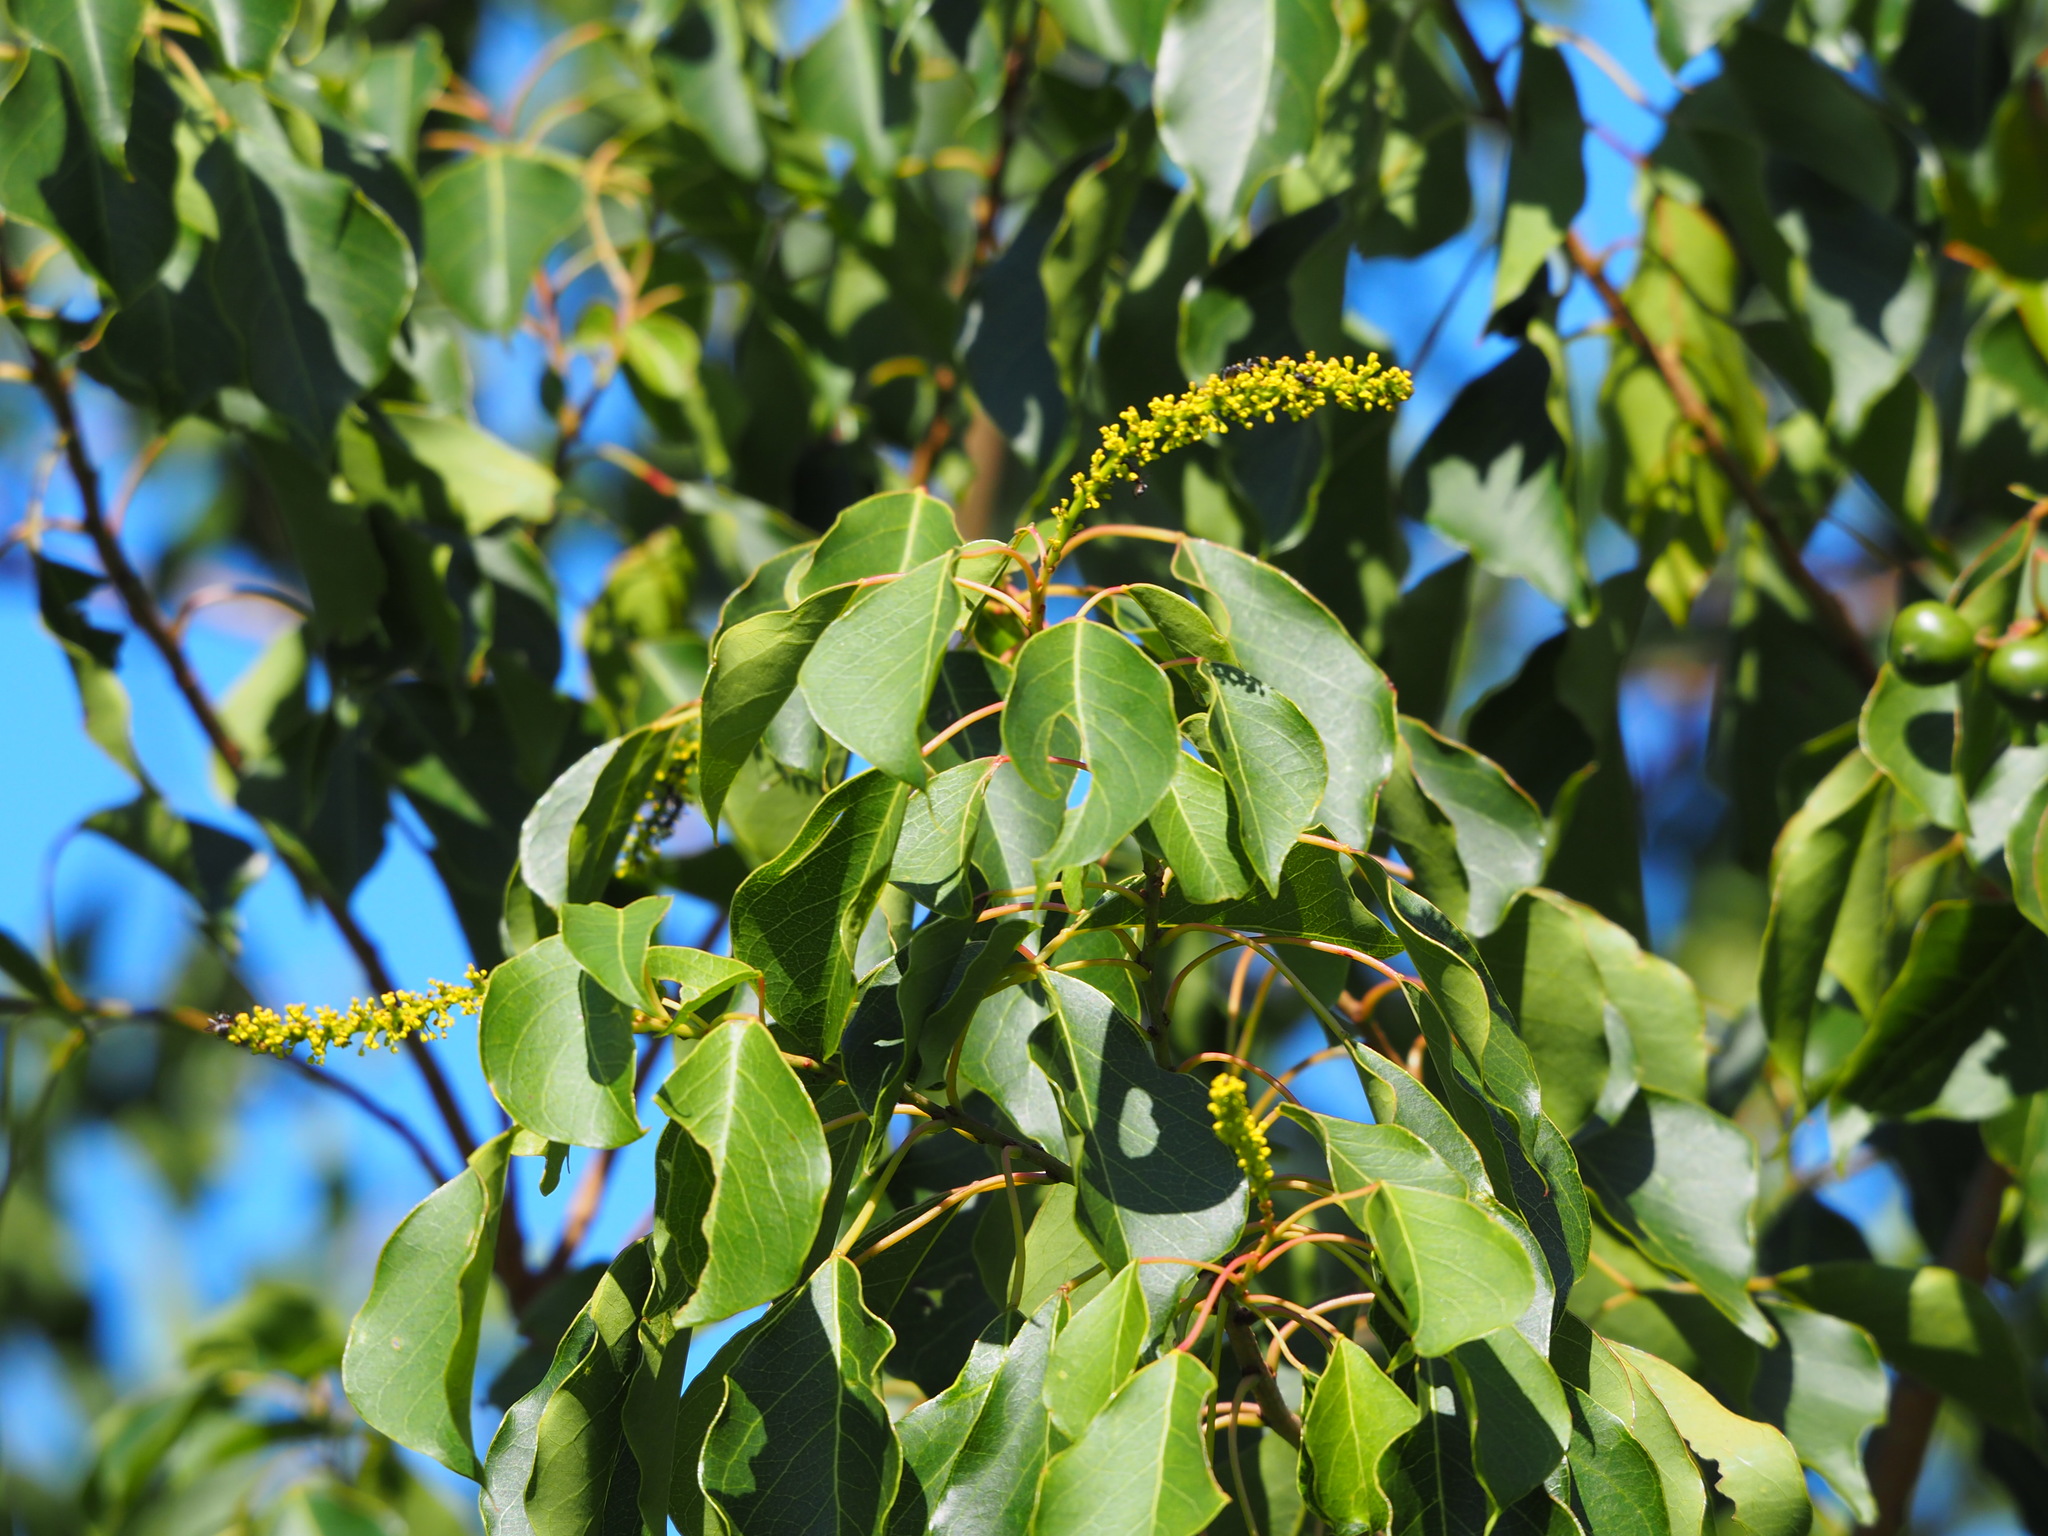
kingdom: Plantae
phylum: Tracheophyta
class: Magnoliopsida
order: Malpighiales
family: Euphorbiaceae
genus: Triadica
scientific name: Triadica sebifera
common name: Chinese tallow
